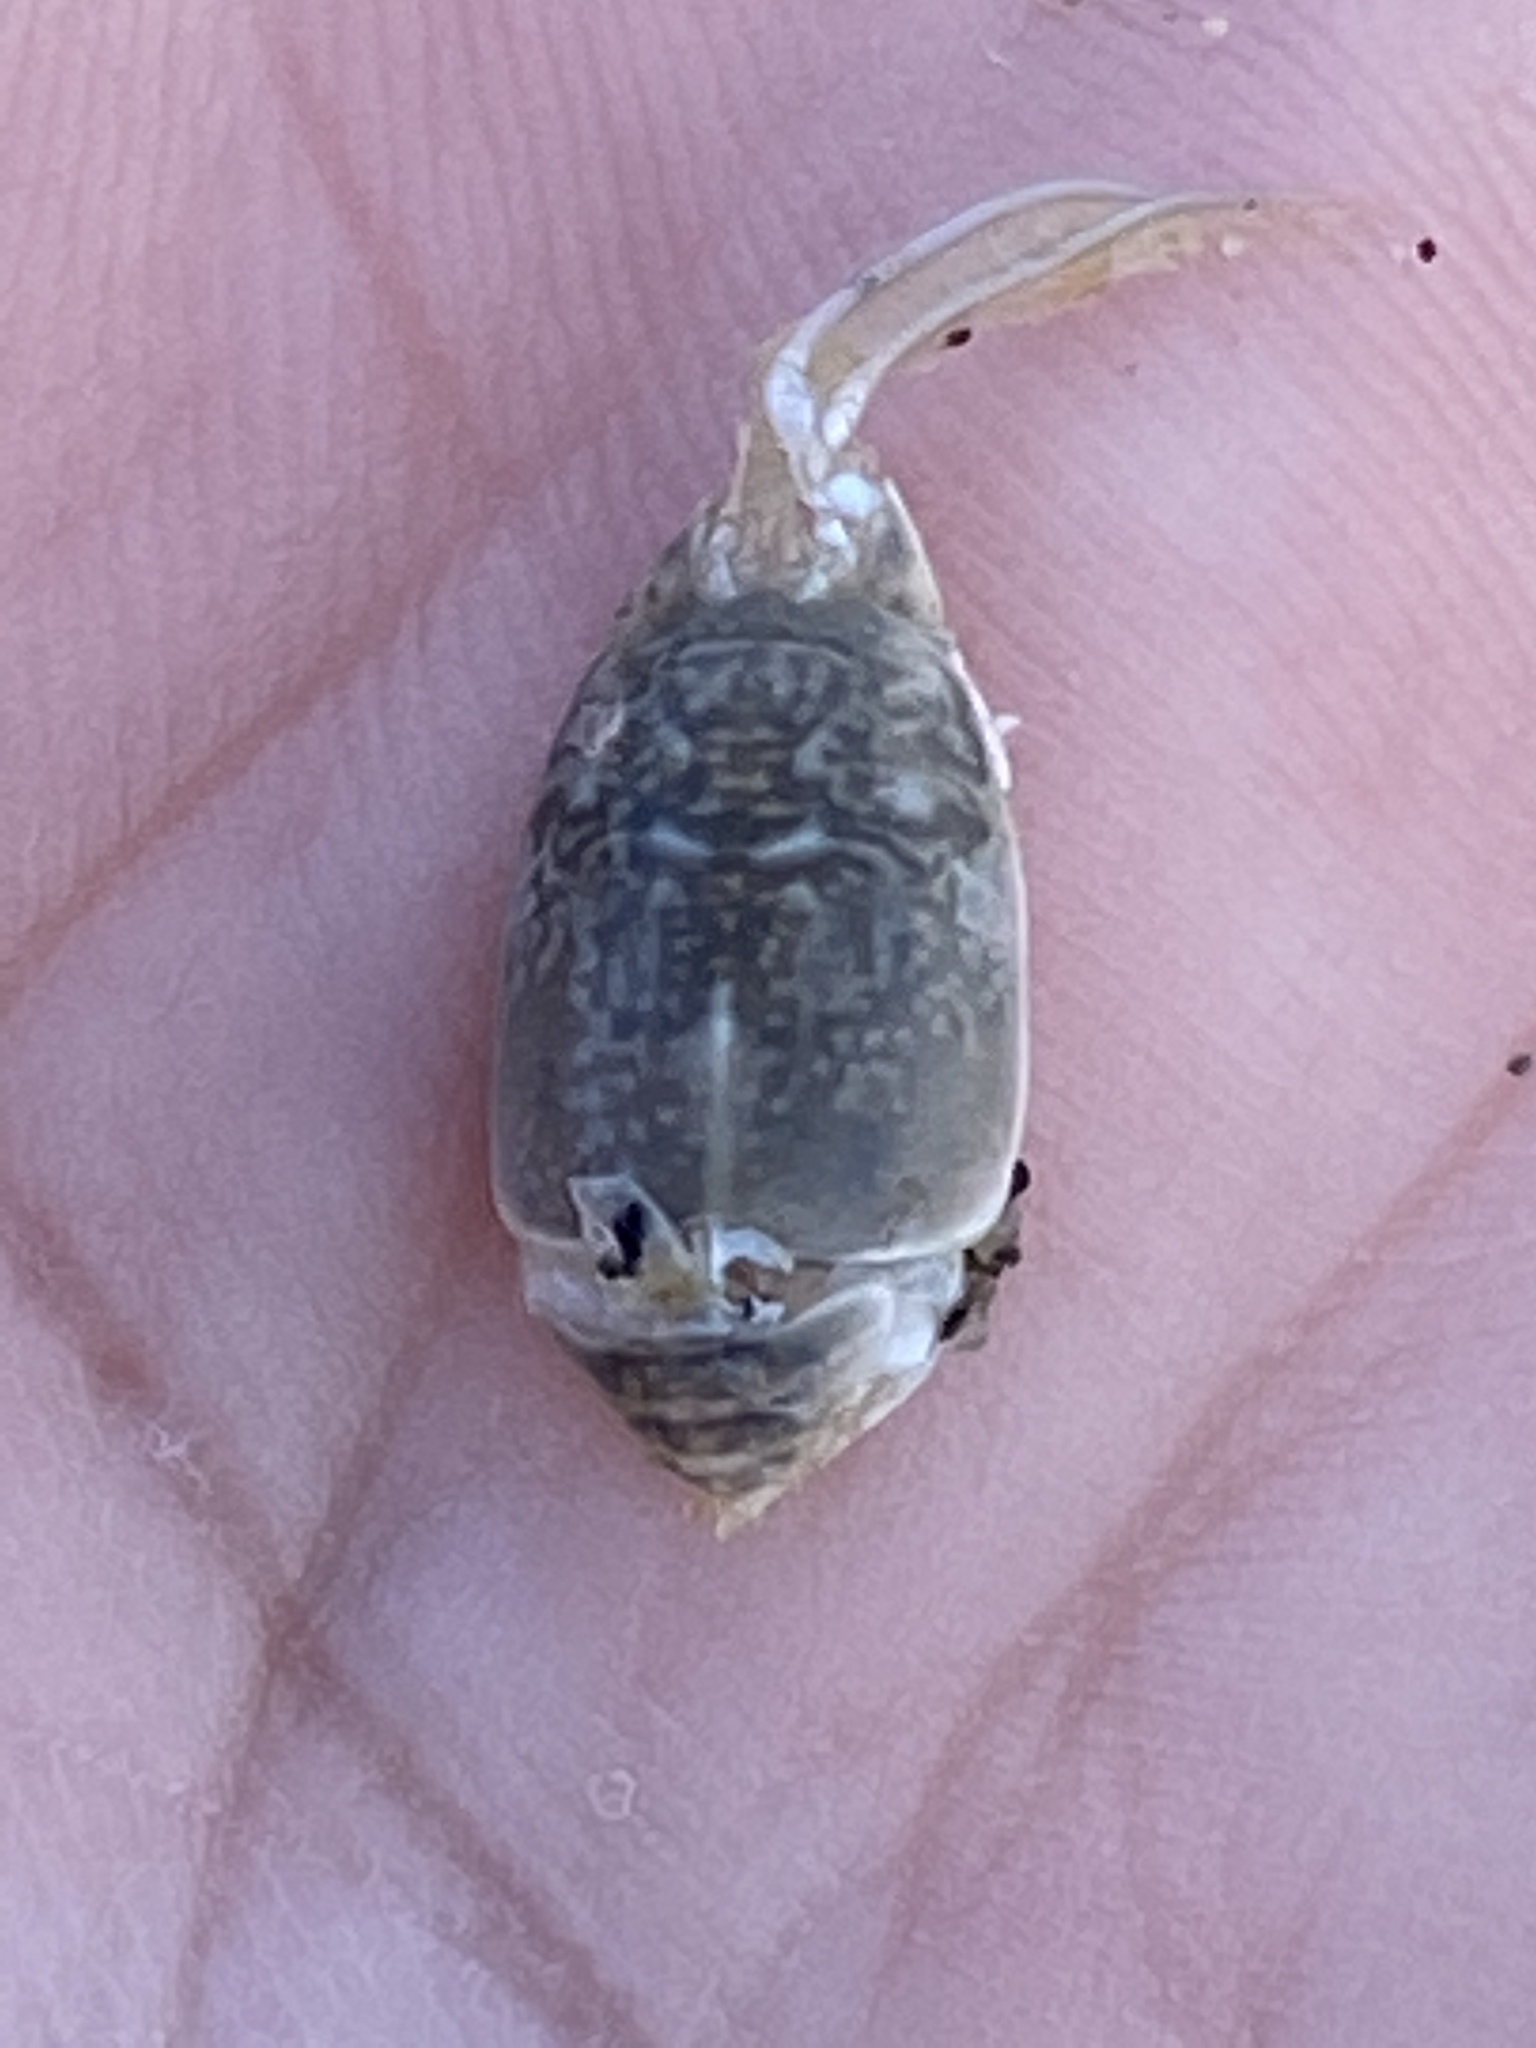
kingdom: Animalia
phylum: Arthropoda
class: Malacostraca
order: Decapoda
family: Hippidae
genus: Emerita
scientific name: Emerita analoga
